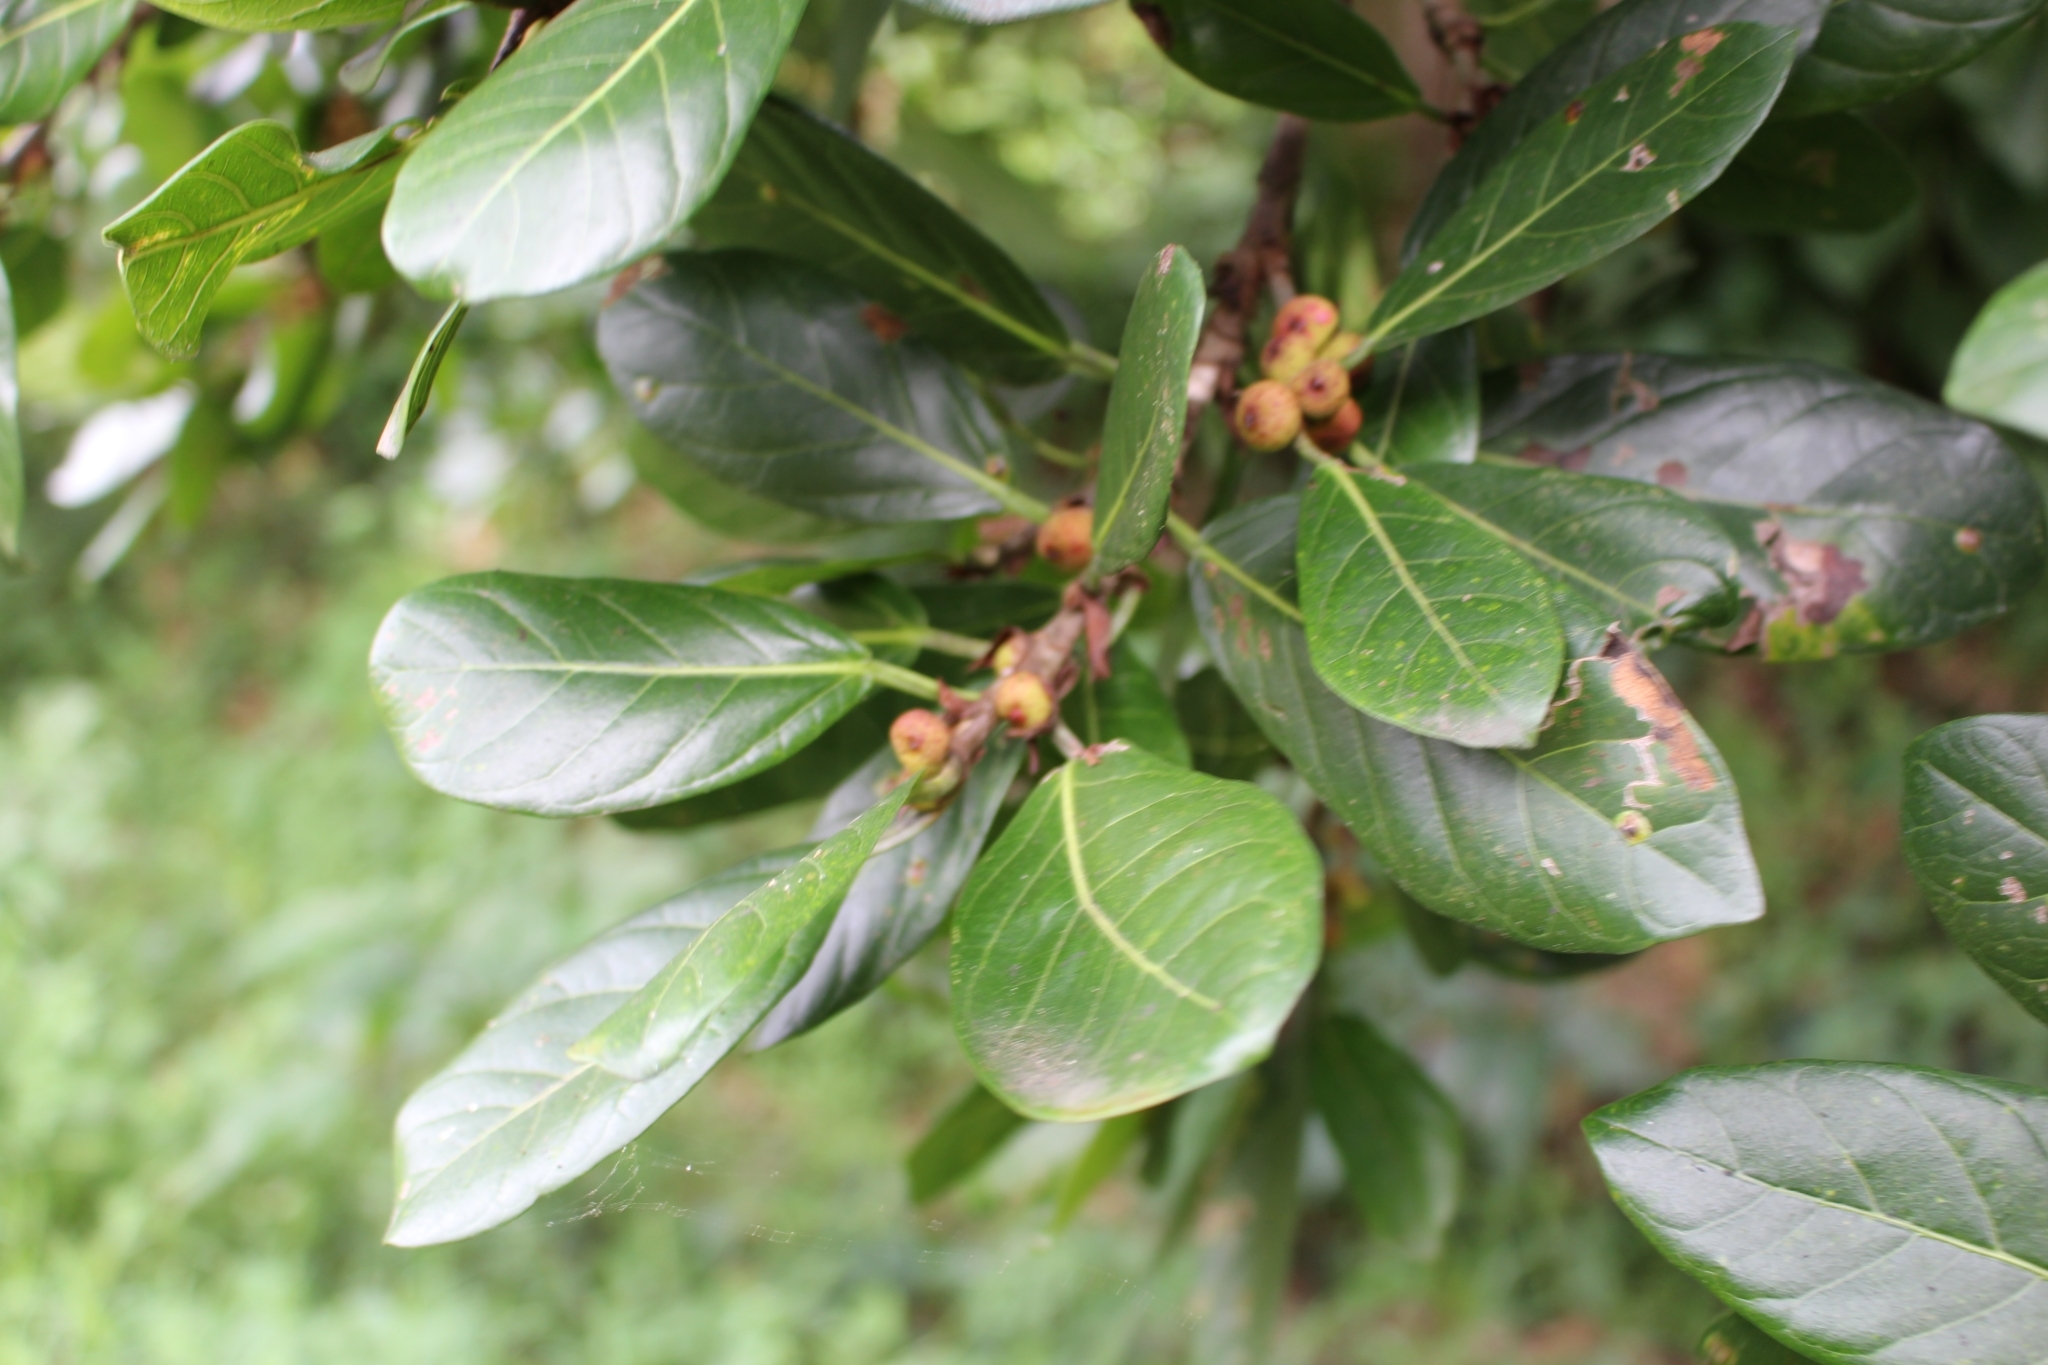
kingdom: Plantae
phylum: Tracheophyta
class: Magnoliopsida
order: Rosales
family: Moraceae
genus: Ficus
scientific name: Ficus costaricana
